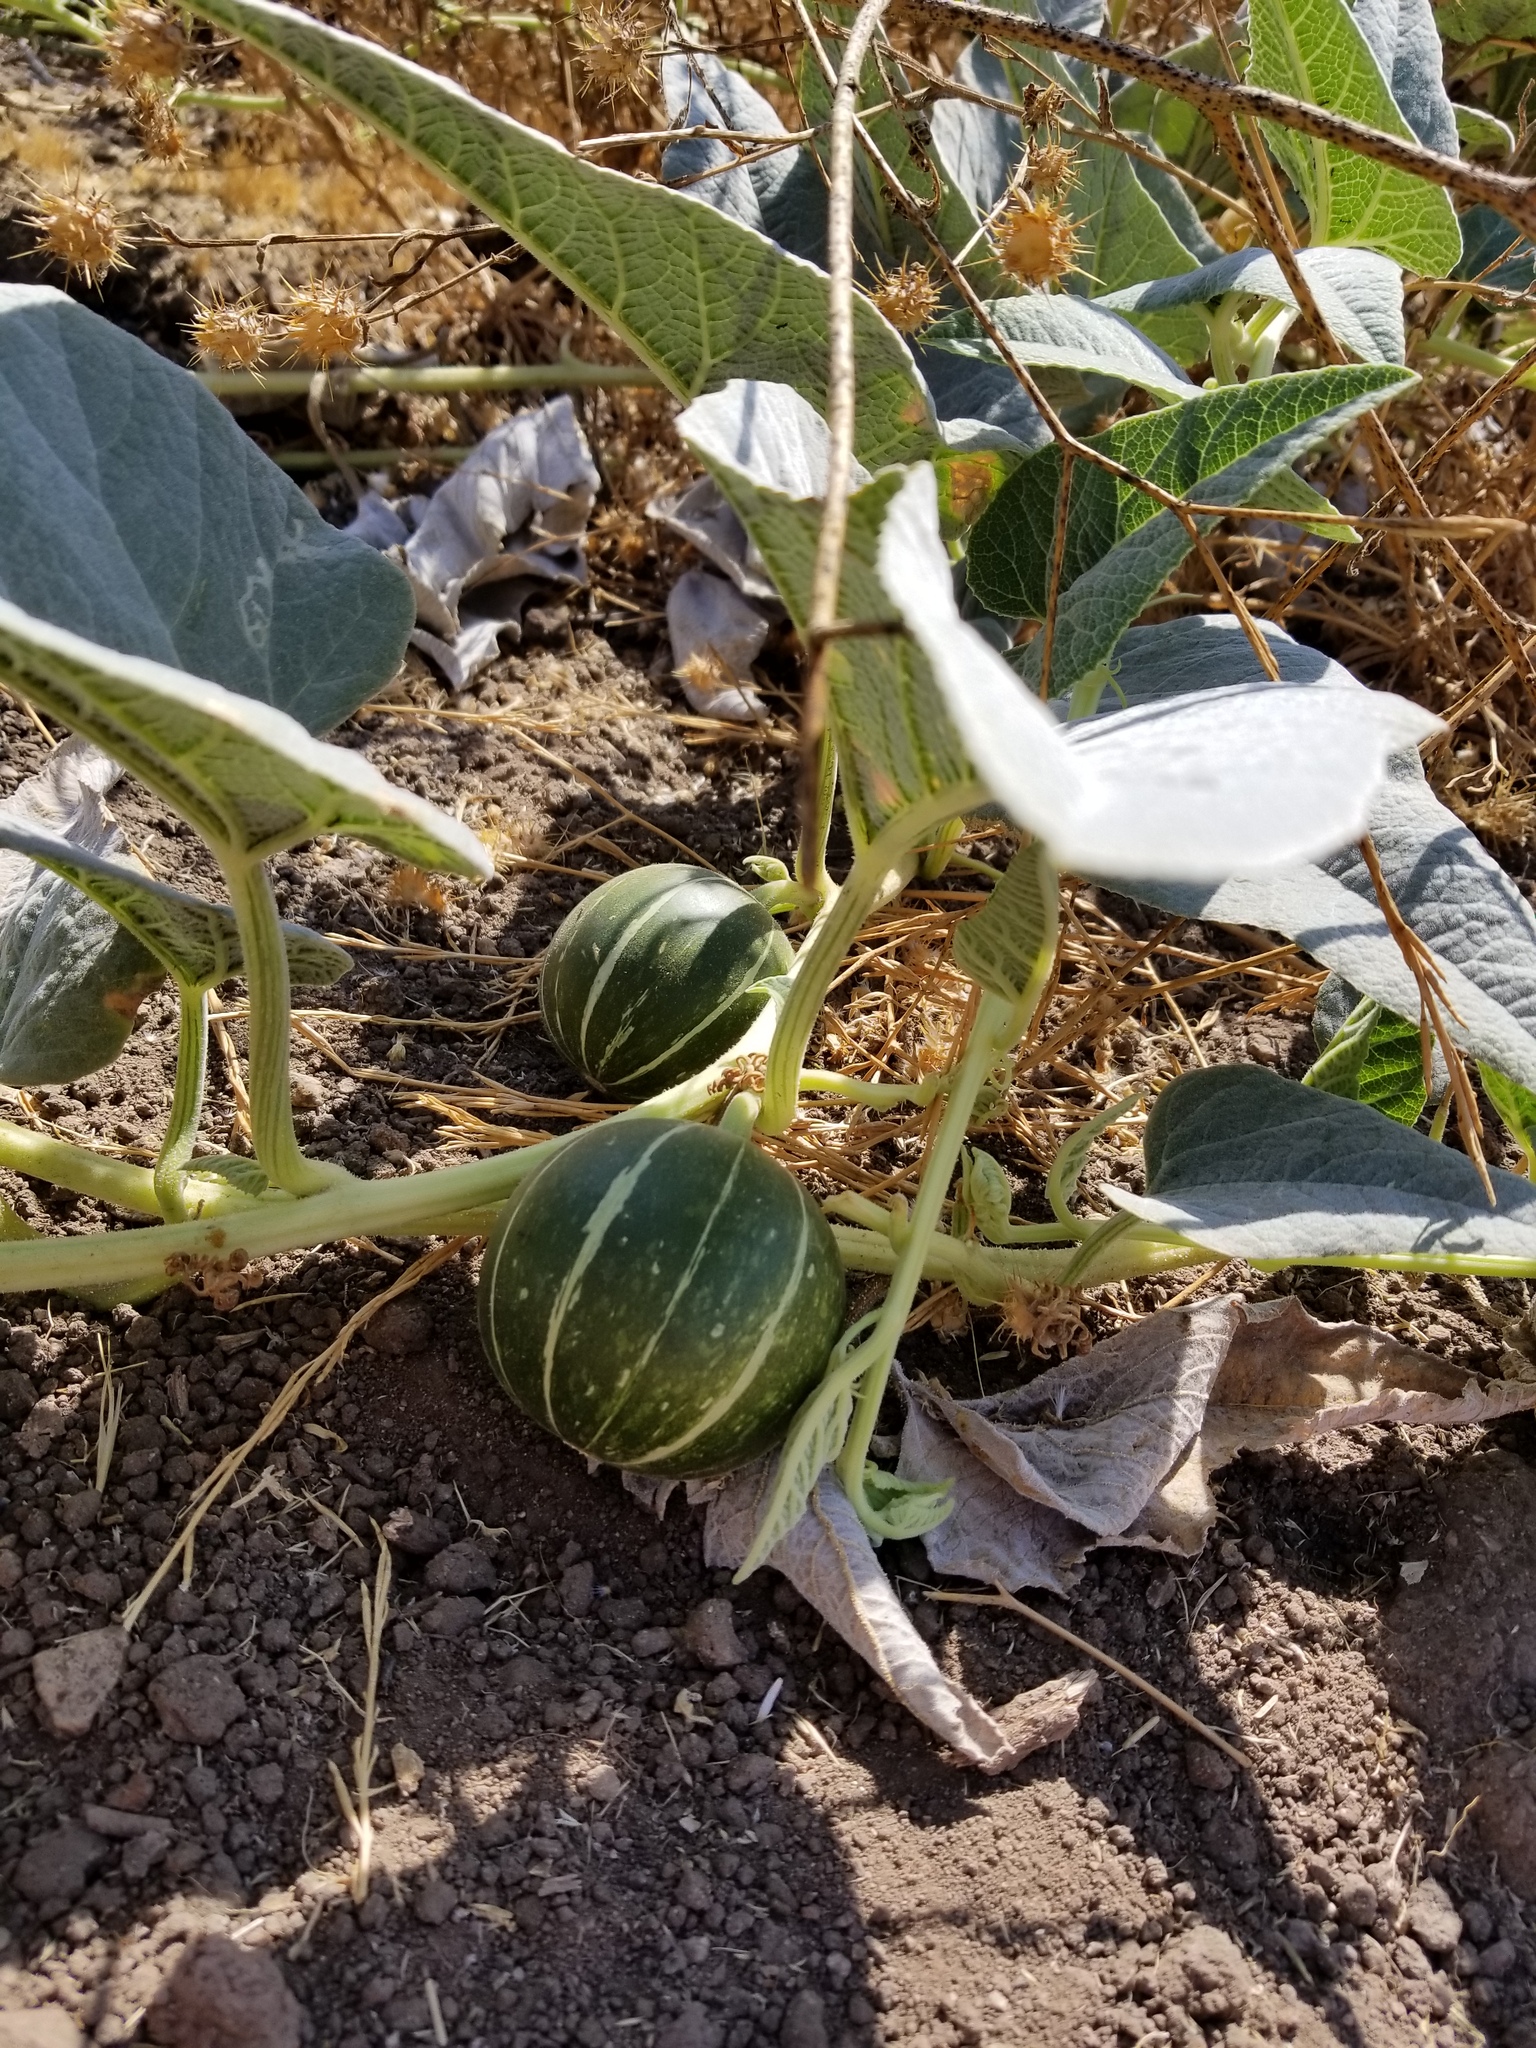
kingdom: Plantae
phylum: Tracheophyta
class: Magnoliopsida
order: Cucurbitales
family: Cucurbitaceae
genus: Cucurbita
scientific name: Cucurbita foetidissima
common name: Buffalo gourd
